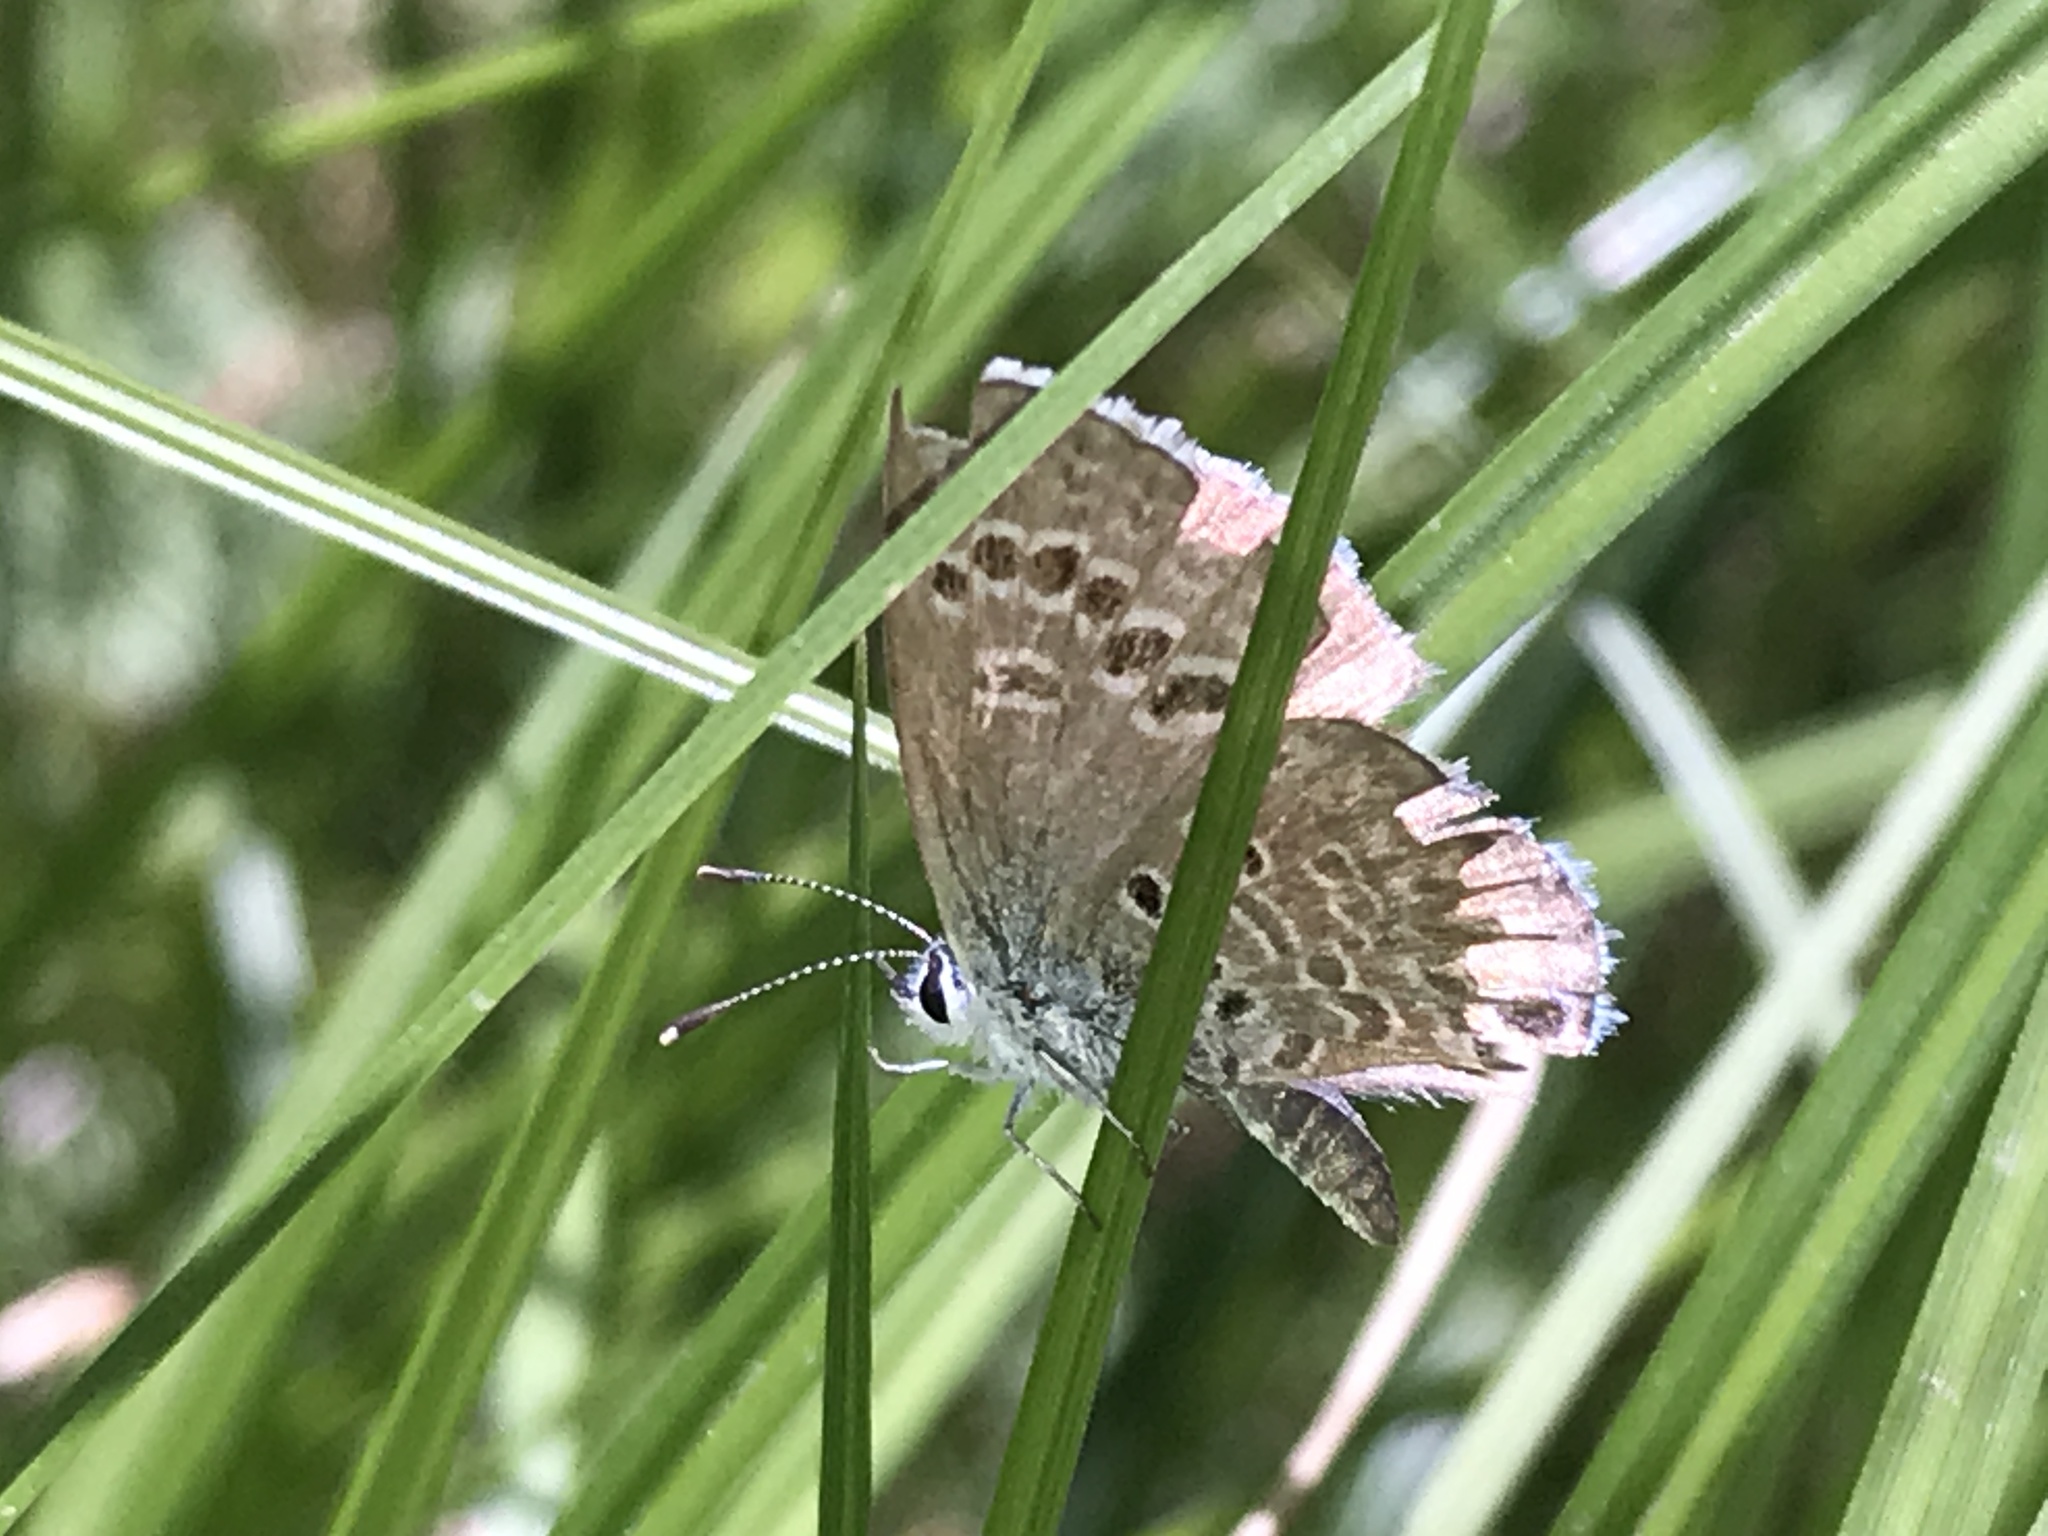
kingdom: Animalia
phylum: Arthropoda
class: Insecta
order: Lepidoptera
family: Lycaenidae
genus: Echinargus
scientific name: Echinargus isola
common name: Reakirt's blue
